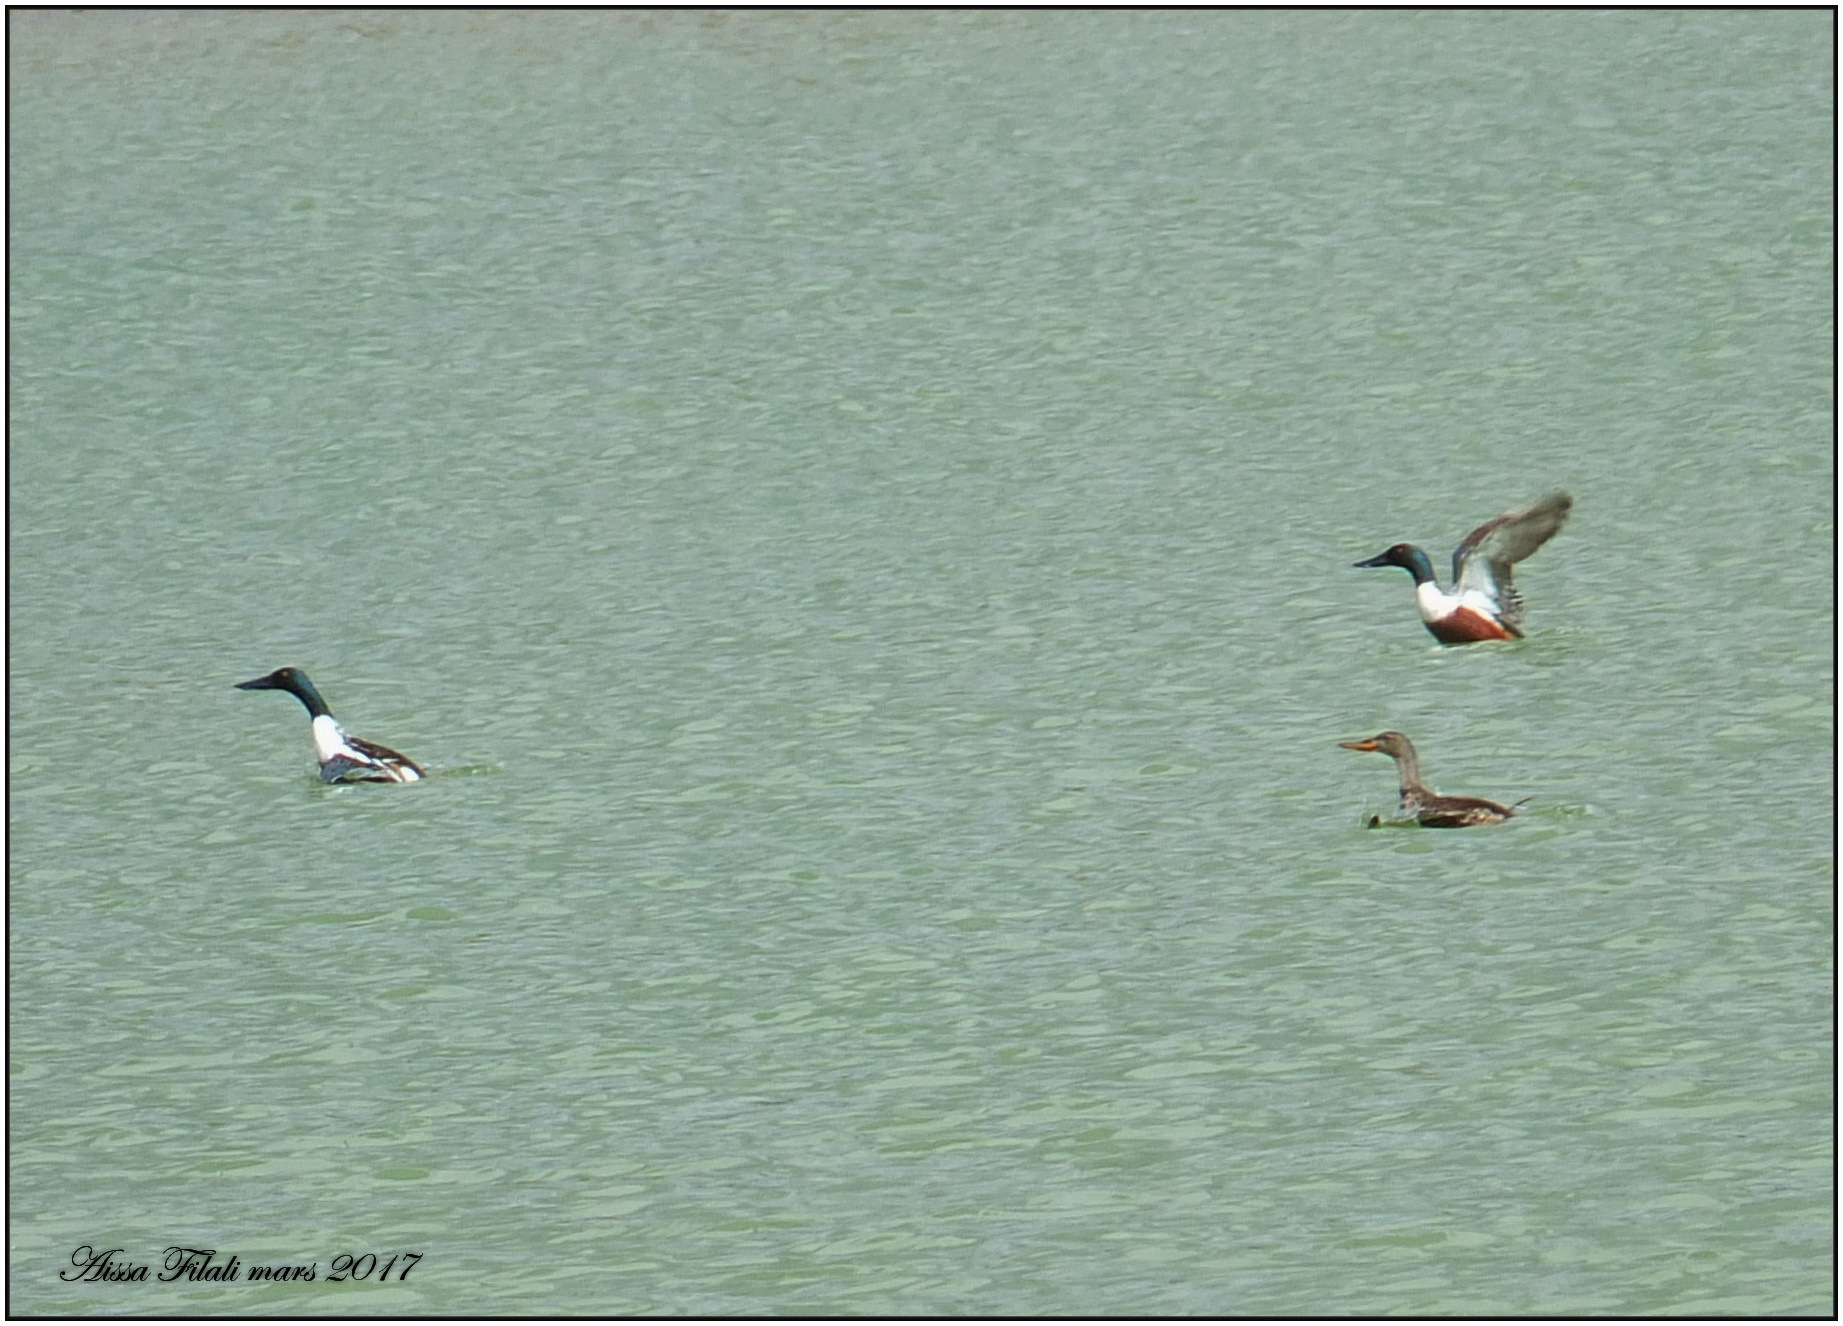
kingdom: Animalia
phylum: Chordata
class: Aves
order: Anseriformes
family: Anatidae
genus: Spatula
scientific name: Spatula clypeata
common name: Northern shoveler
